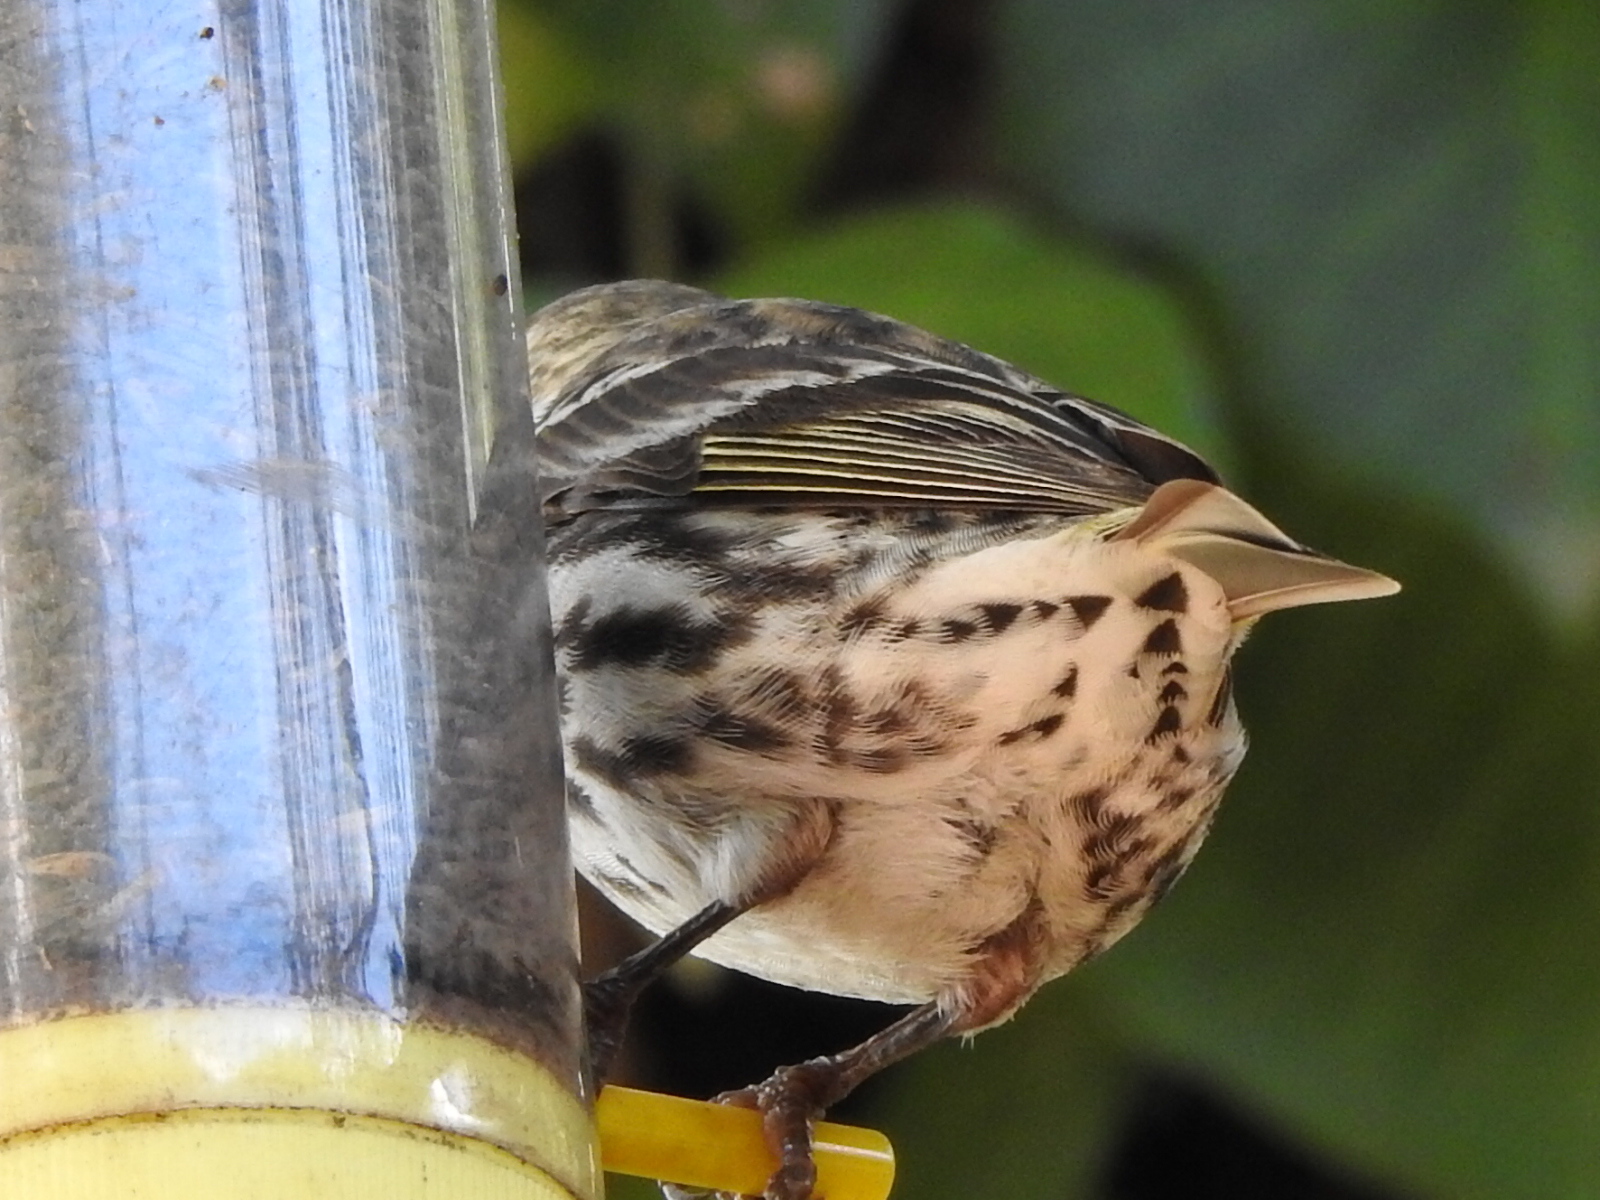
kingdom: Animalia
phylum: Chordata
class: Aves
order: Passeriformes
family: Fringillidae
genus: Spinus
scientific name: Spinus pinus
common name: Pine siskin
